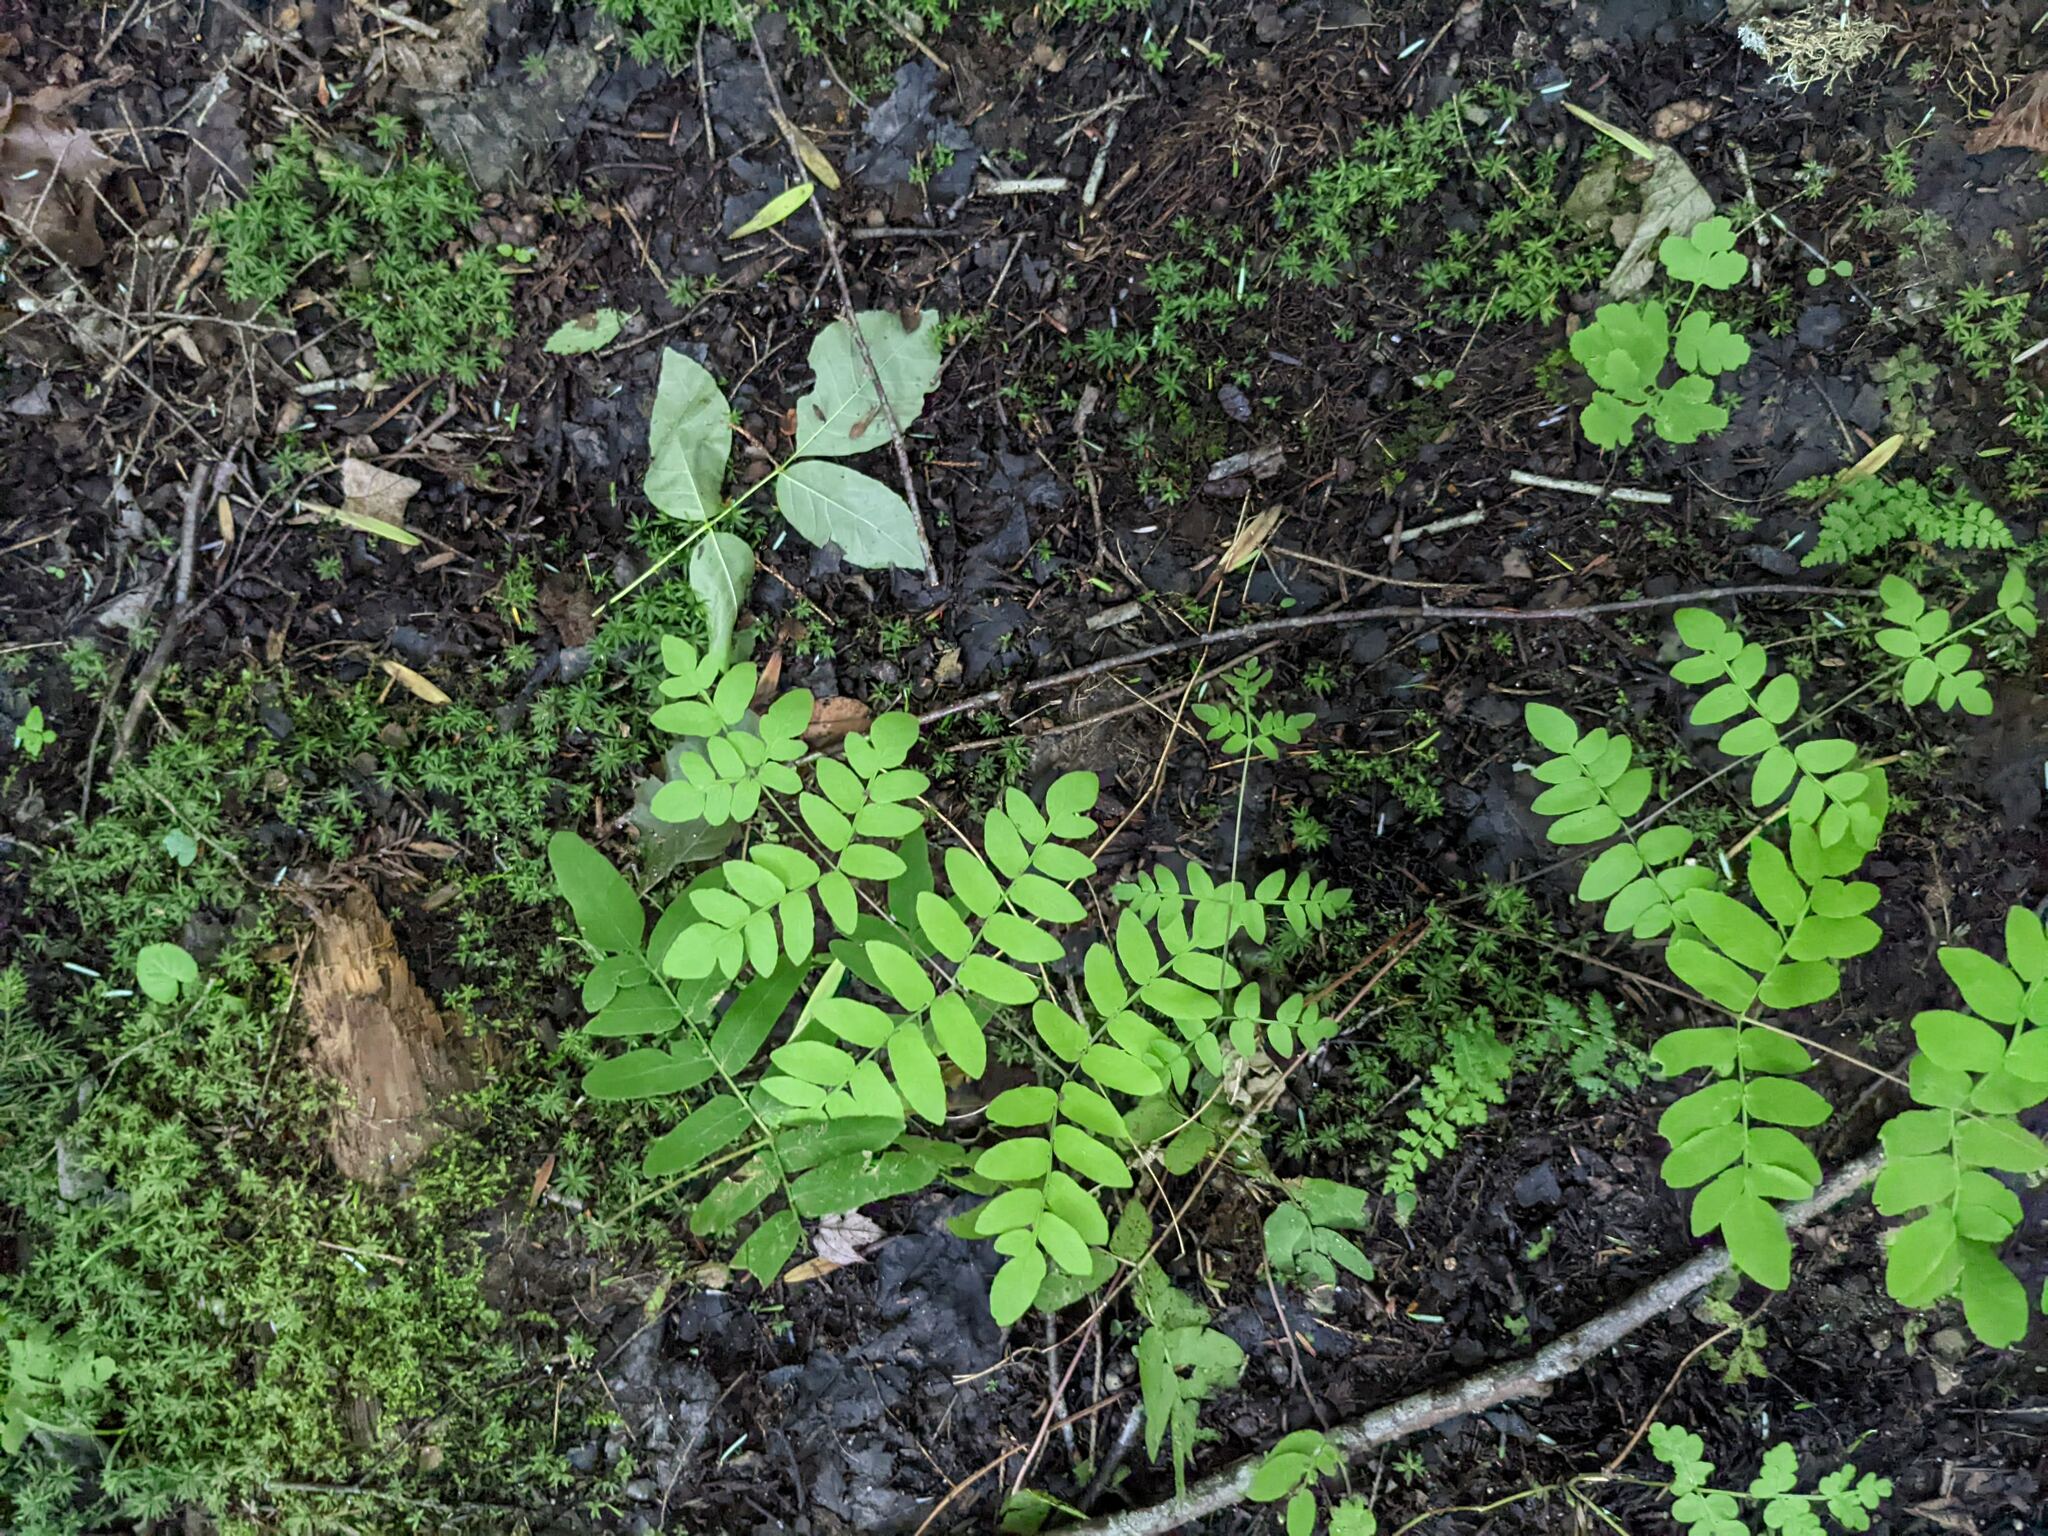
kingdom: Plantae
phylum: Tracheophyta
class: Polypodiopsida
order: Osmundales
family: Osmundaceae
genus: Osmunda
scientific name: Osmunda spectabilis
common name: American royal fern
